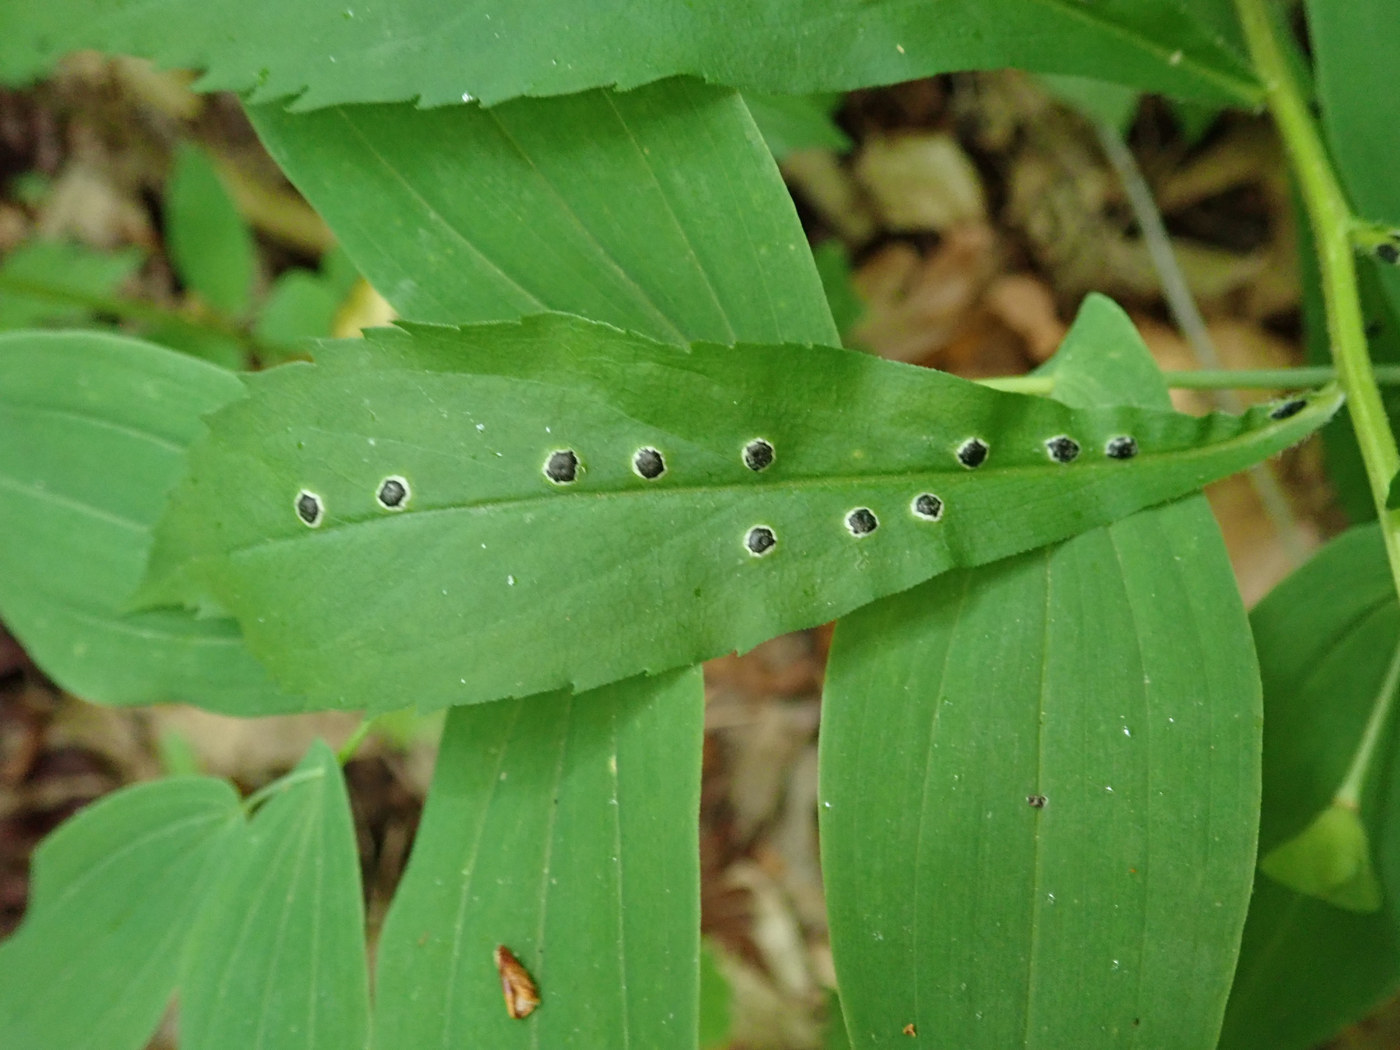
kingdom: Animalia
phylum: Arthropoda
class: Insecta
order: Diptera
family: Cecidomyiidae
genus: Asteromyia
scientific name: Asteromyia carbonifera
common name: Carbonifera goldenrod gall midge
